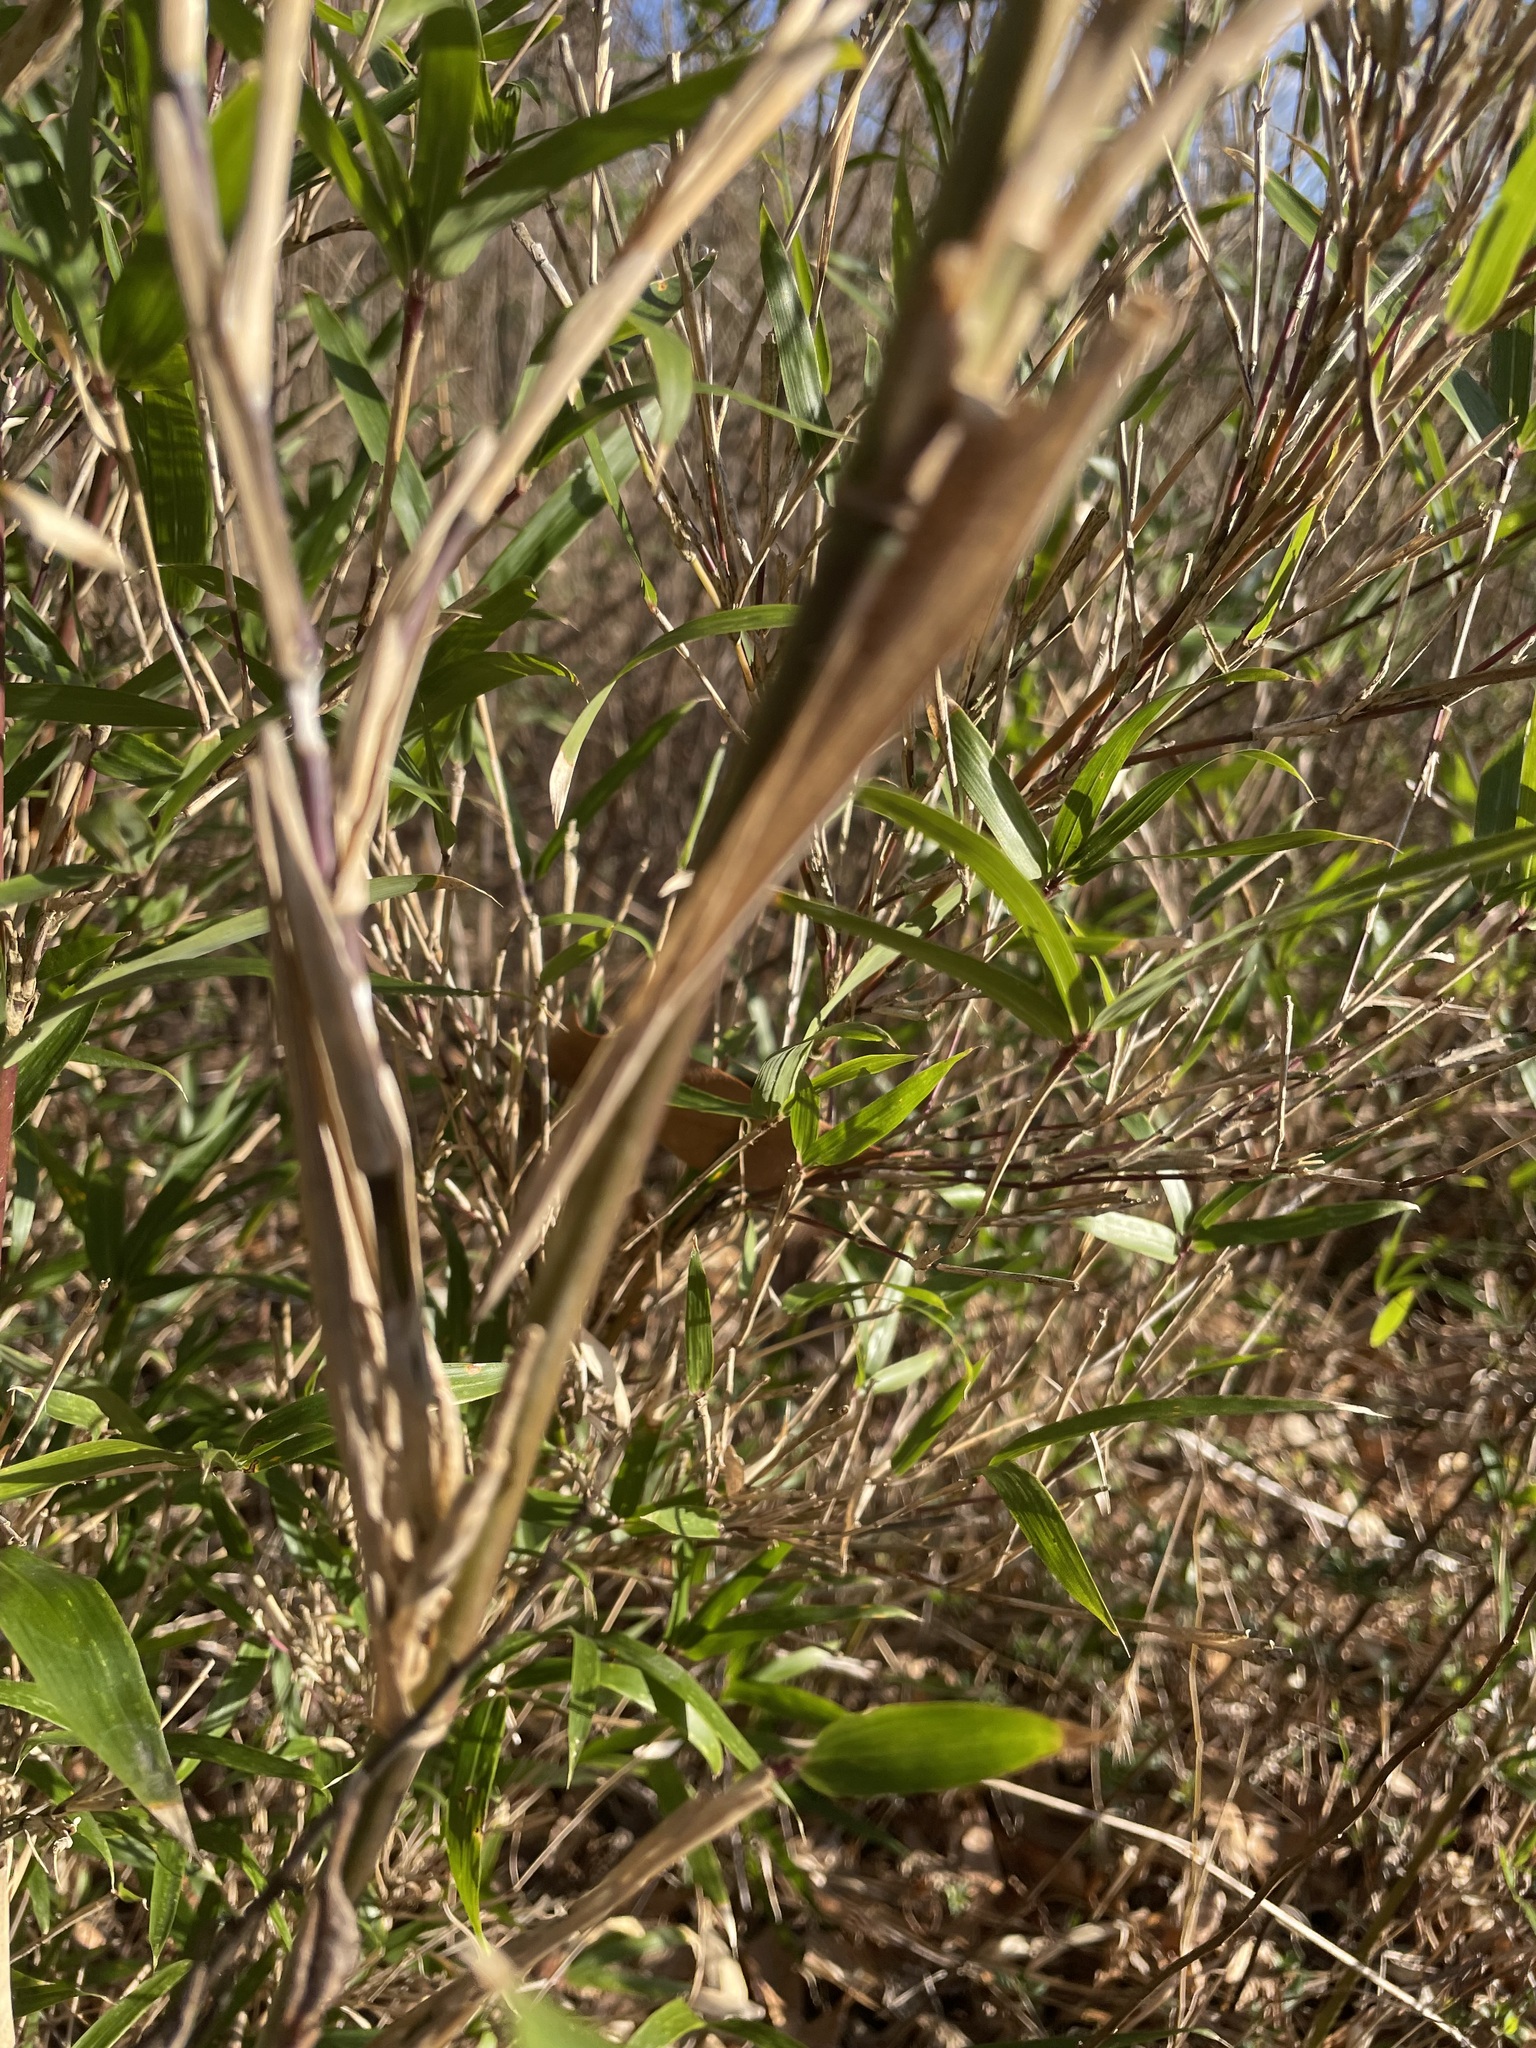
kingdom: Plantae
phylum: Tracheophyta
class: Liliopsida
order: Poales
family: Poaceae
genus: Arundinaria
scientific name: Arundinaria gigantea
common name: Giant cane
